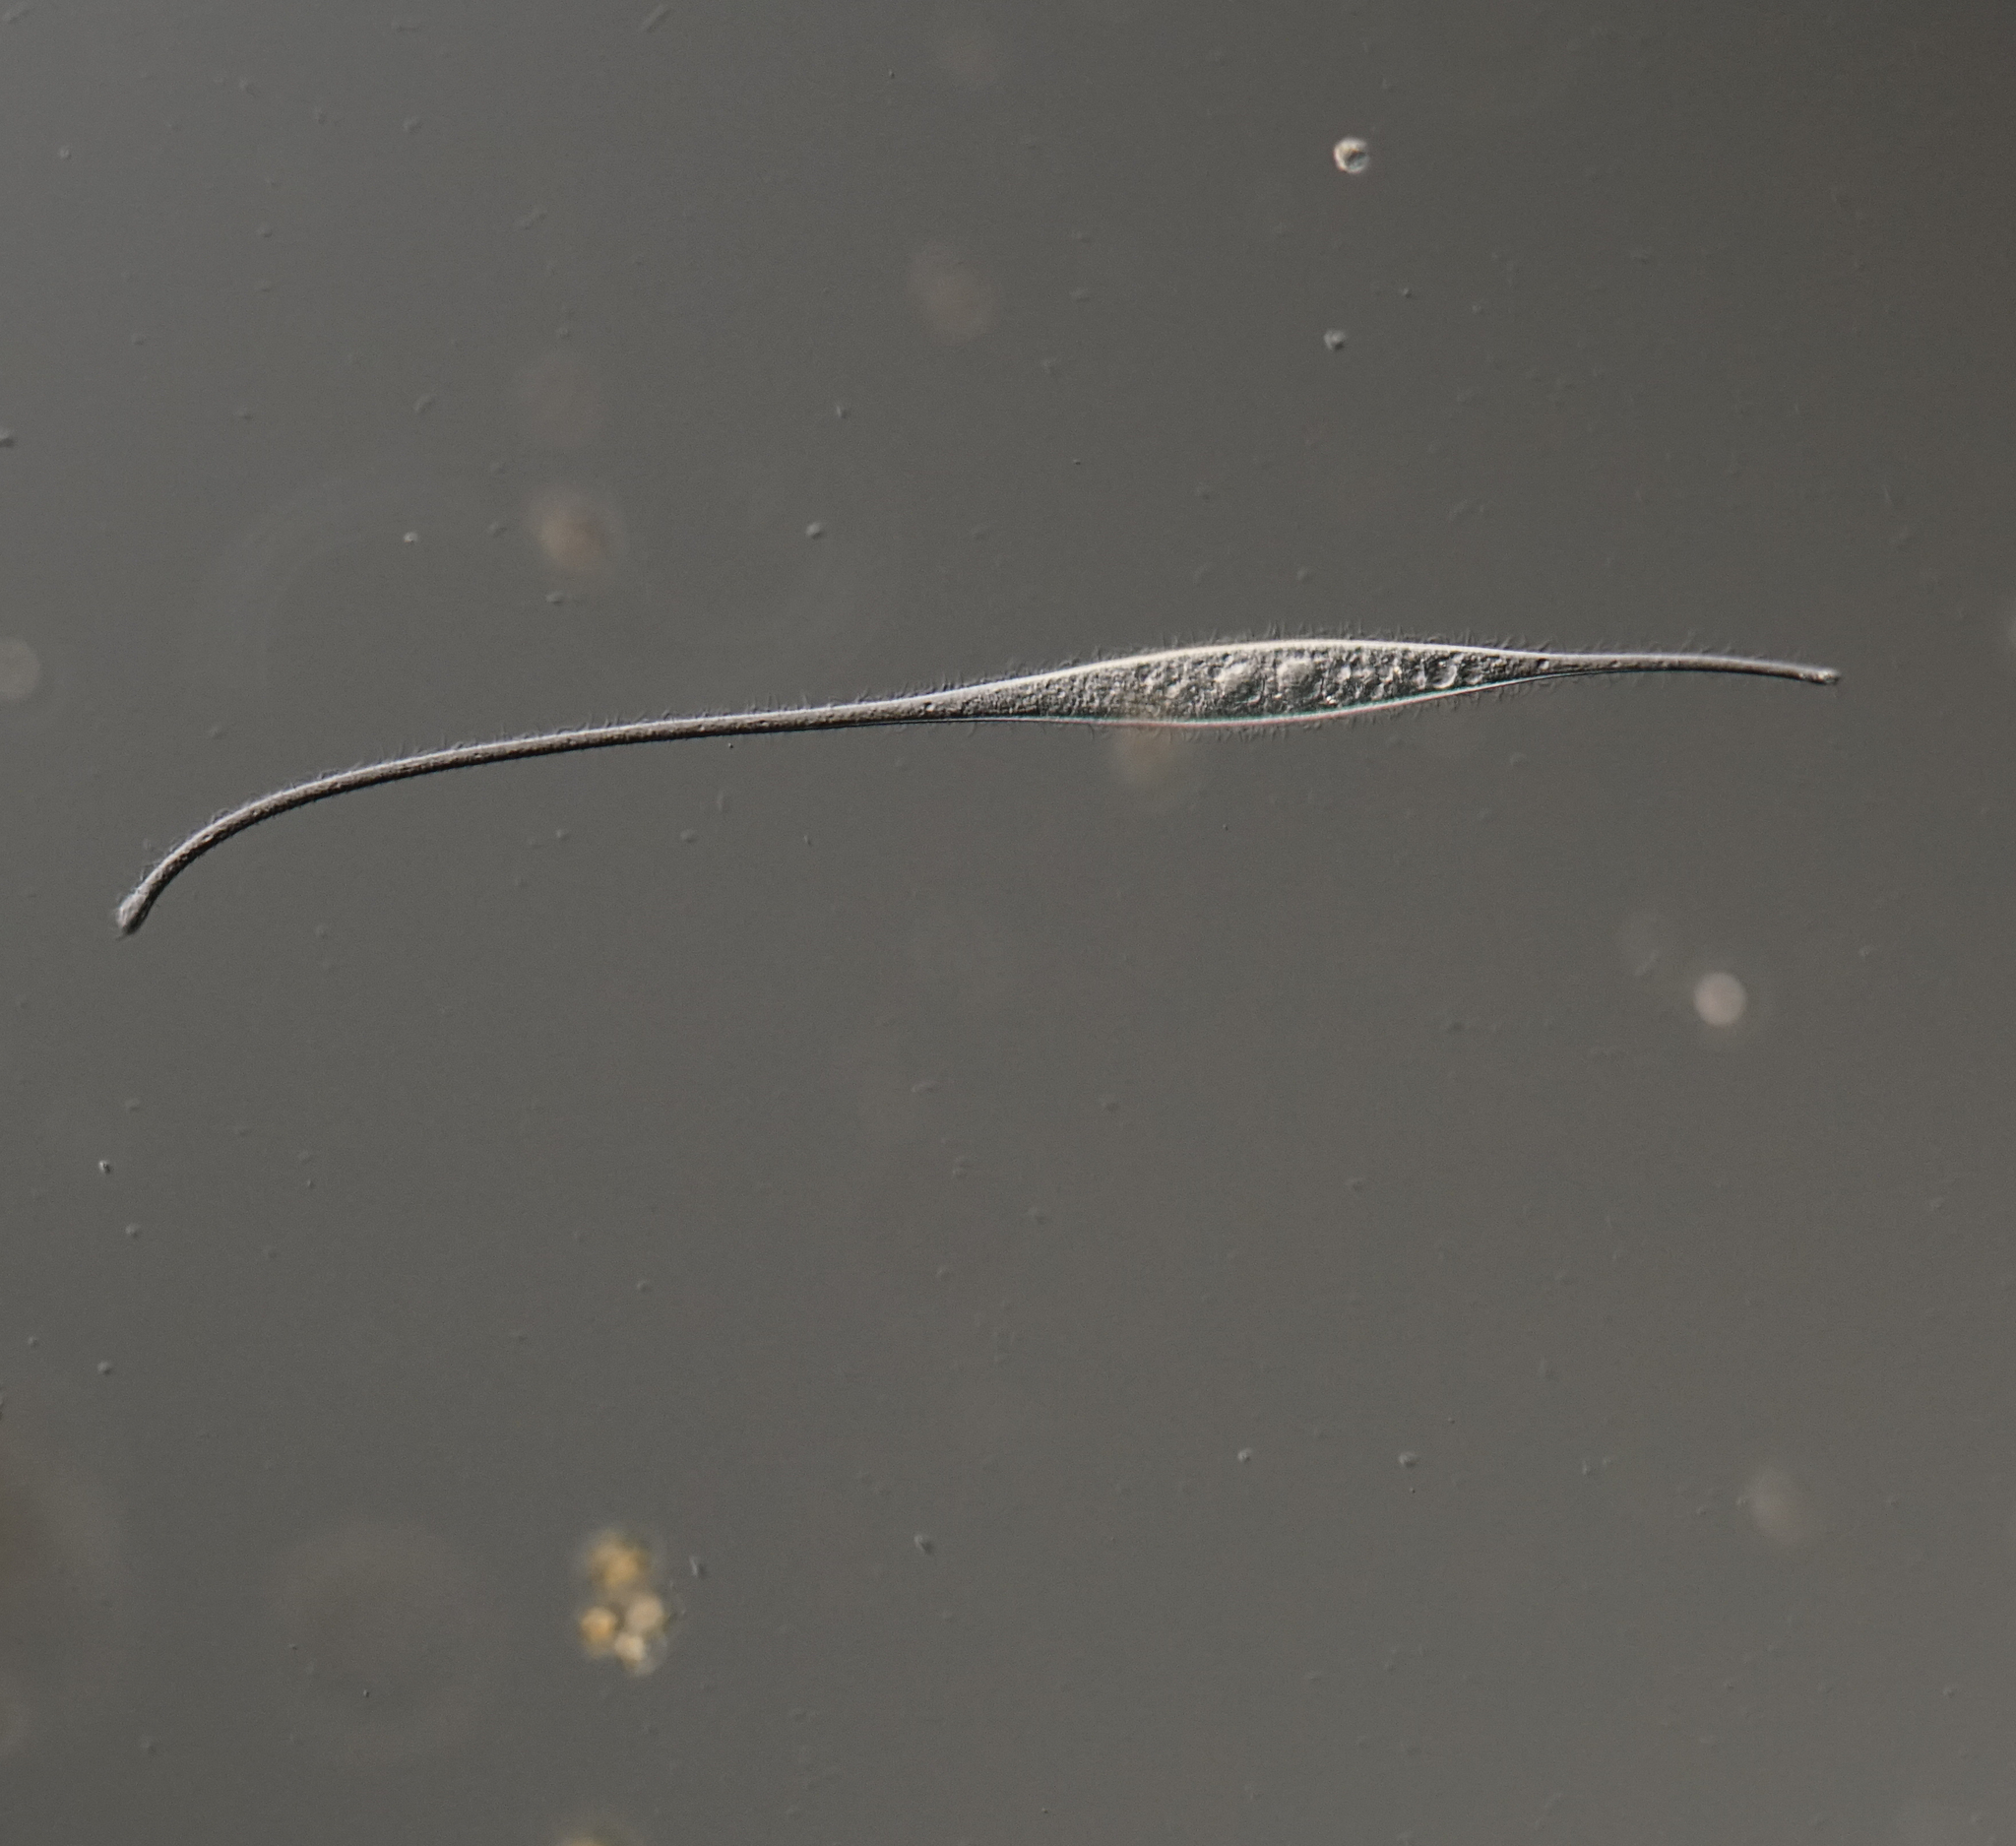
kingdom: Chromista
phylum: Ciliophora
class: Gymnostomatea
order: Pleurostomatida
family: Amphileptidae
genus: Amphileptus
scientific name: Amphileptus procerus
